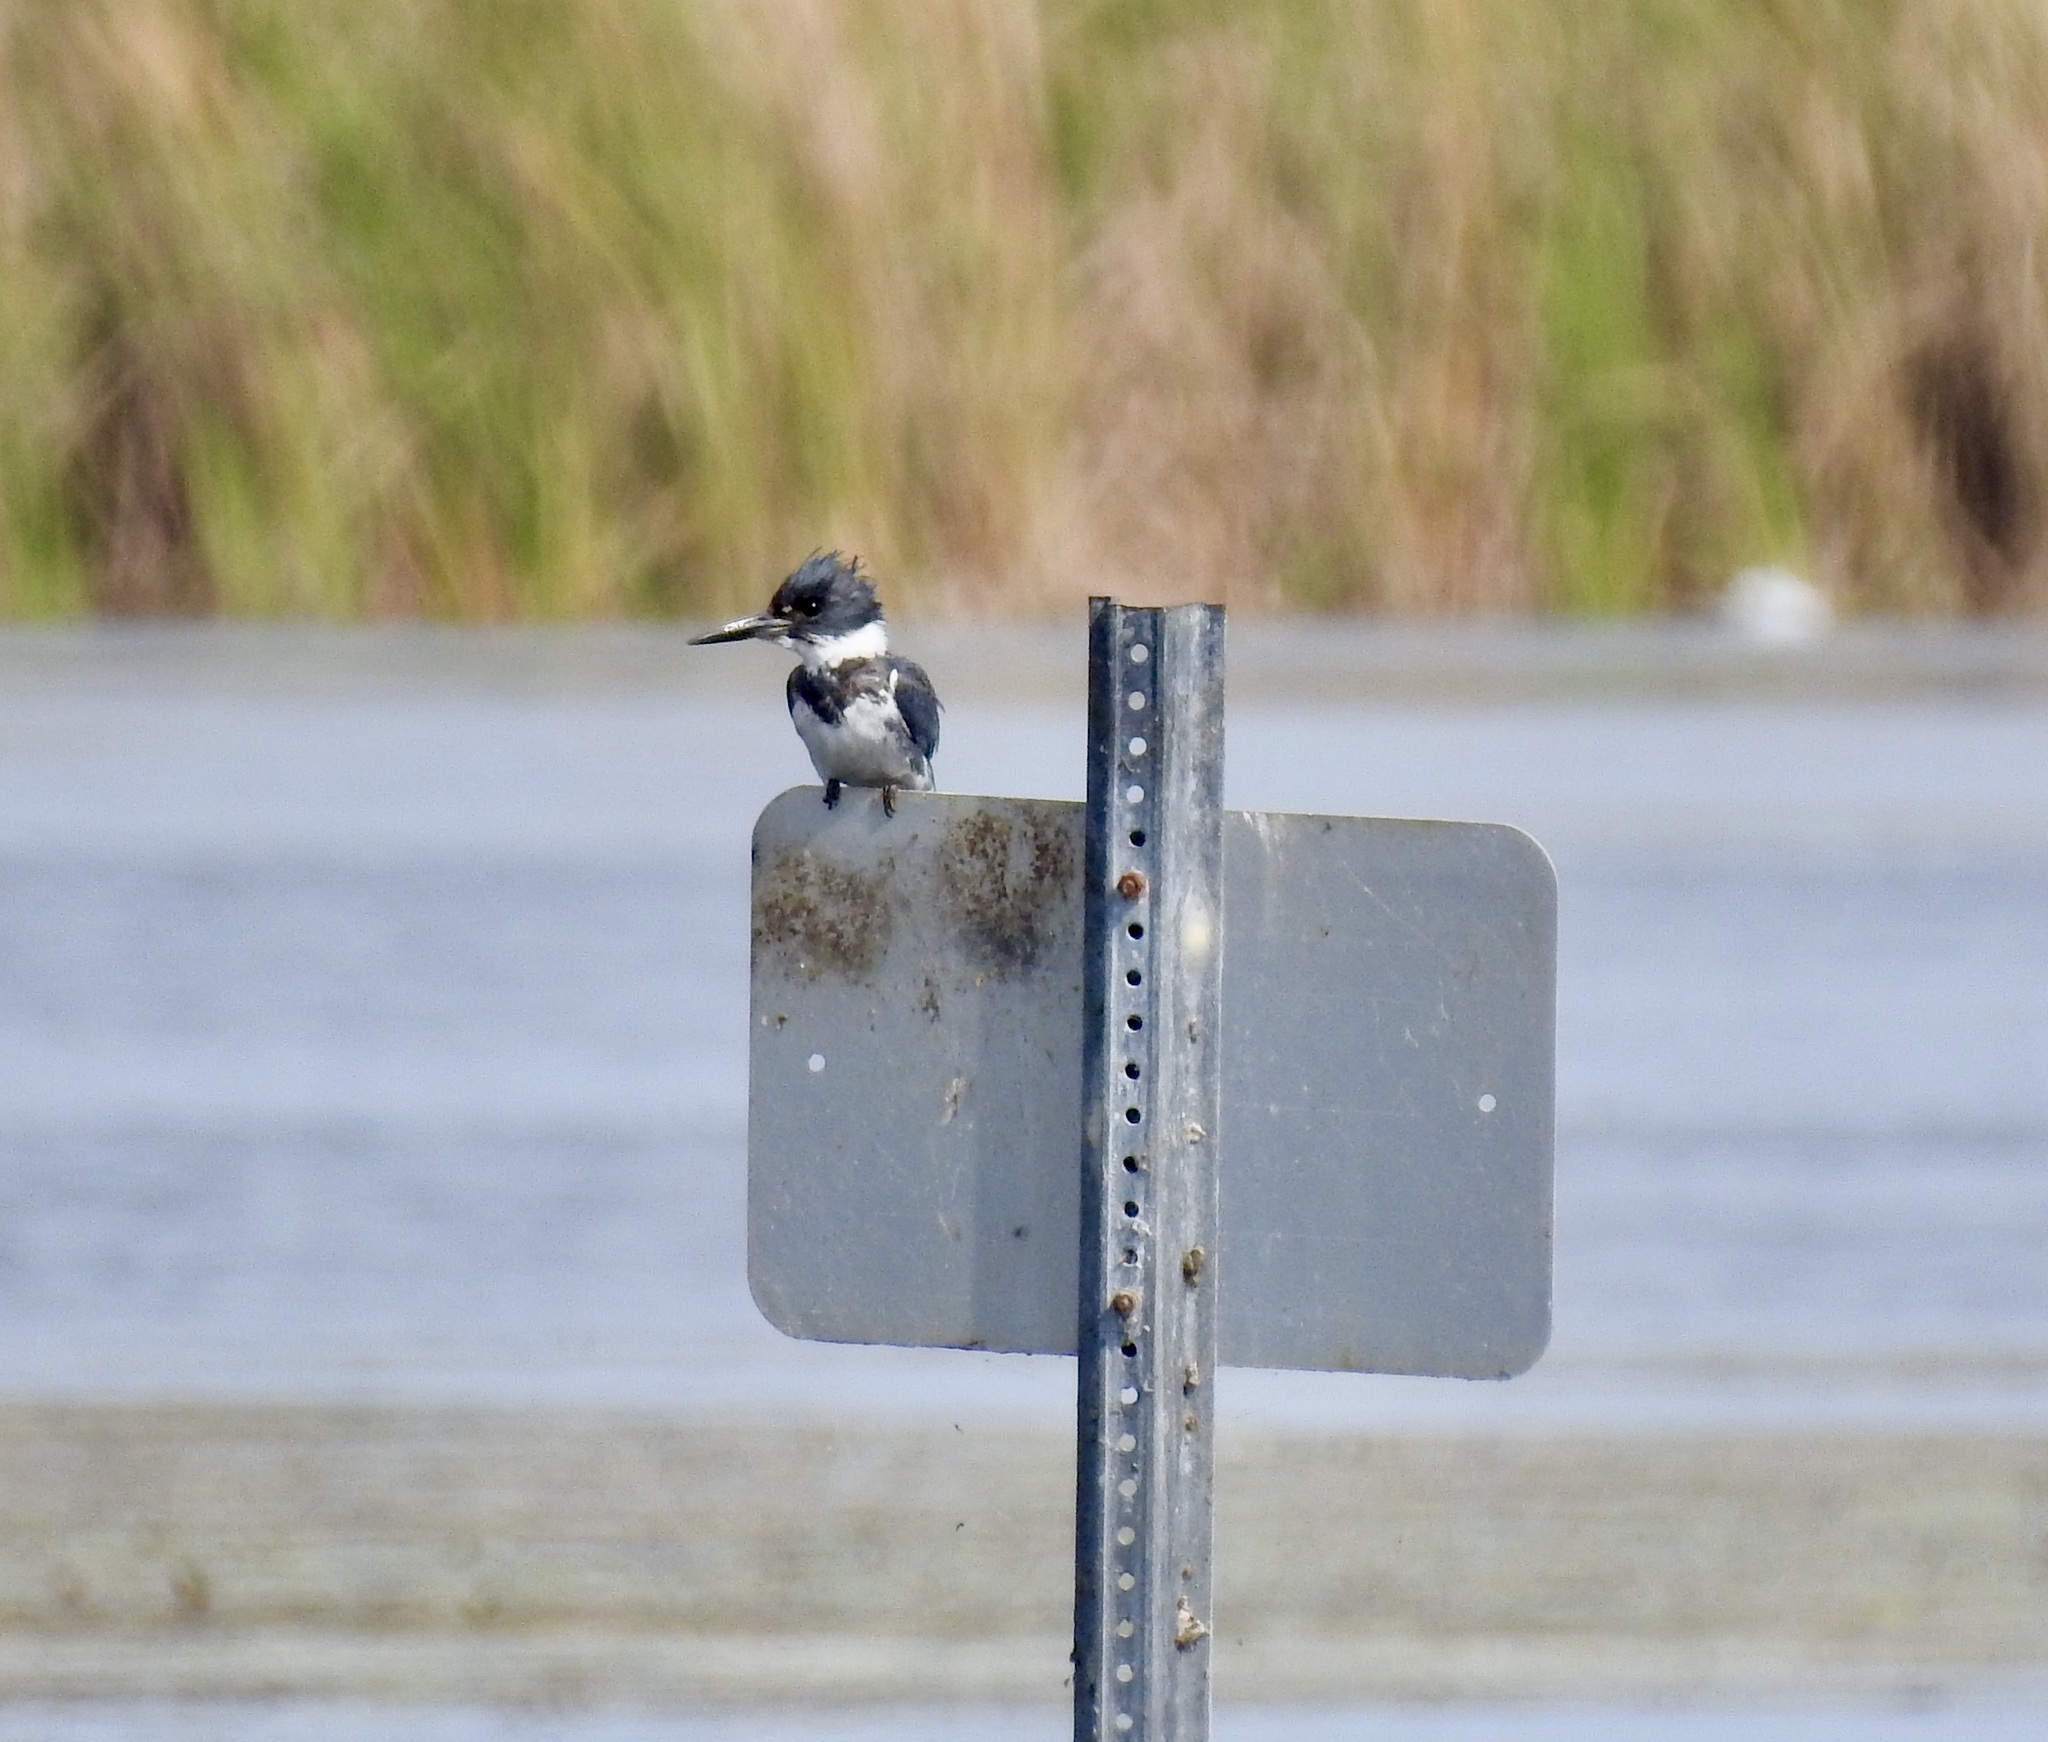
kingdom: Animalia
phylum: Chordata
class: Aves
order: Coraciiformes
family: Alcedinidae
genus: Megaceryle
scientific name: Megaceryle alcyon
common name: Belted kingfisher
